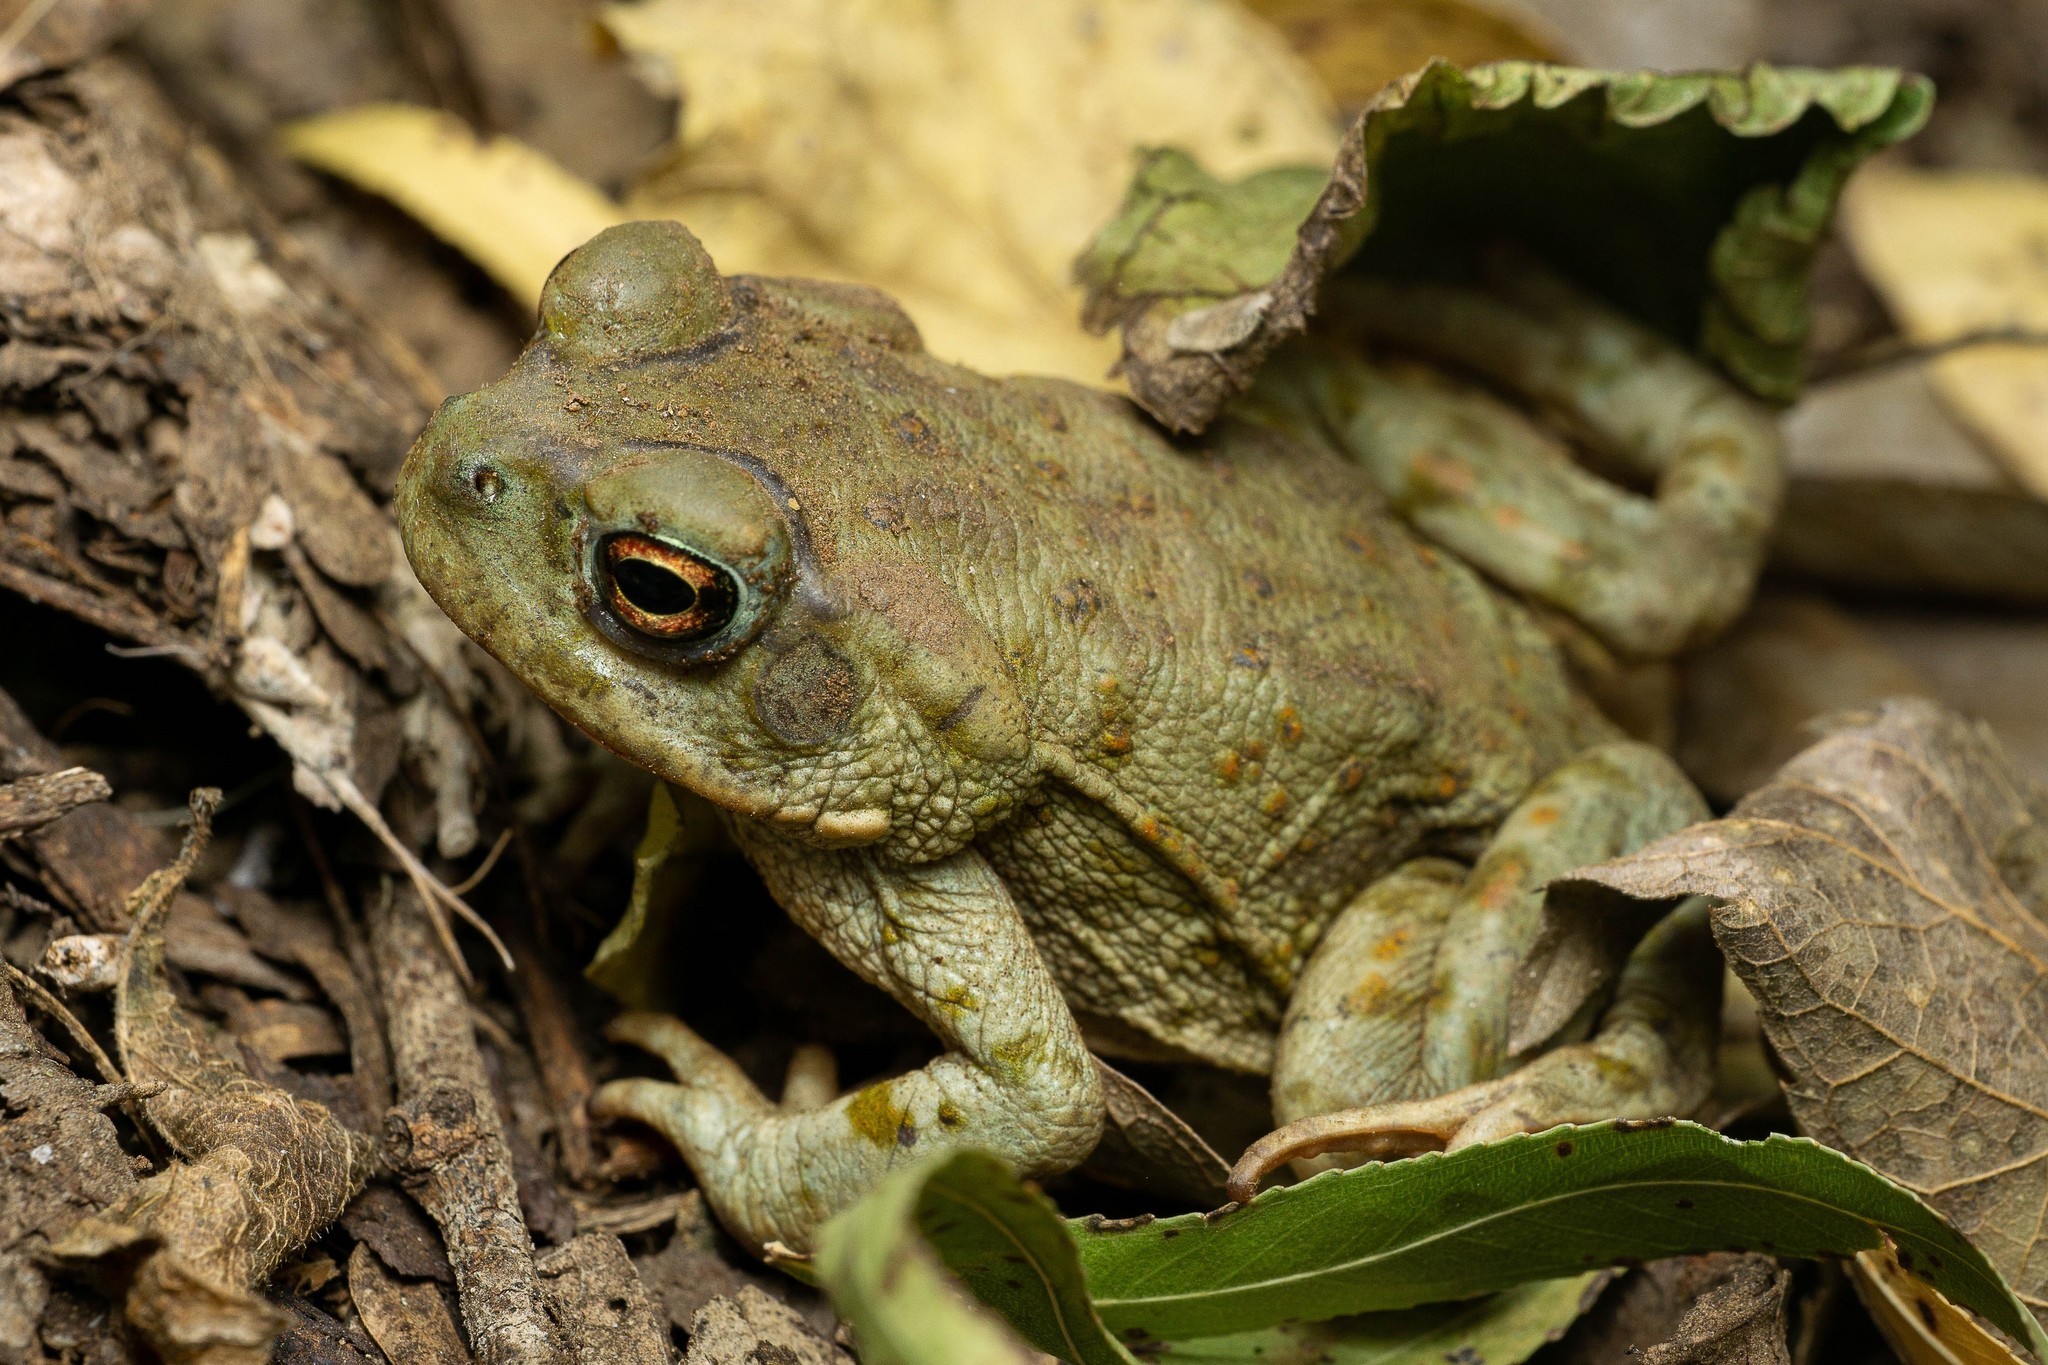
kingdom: Animalia
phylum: Chordata
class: Amphibia
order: Anura
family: Bufonidae
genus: Incilius
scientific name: Incilius alvarius
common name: Sonoran desert toad
